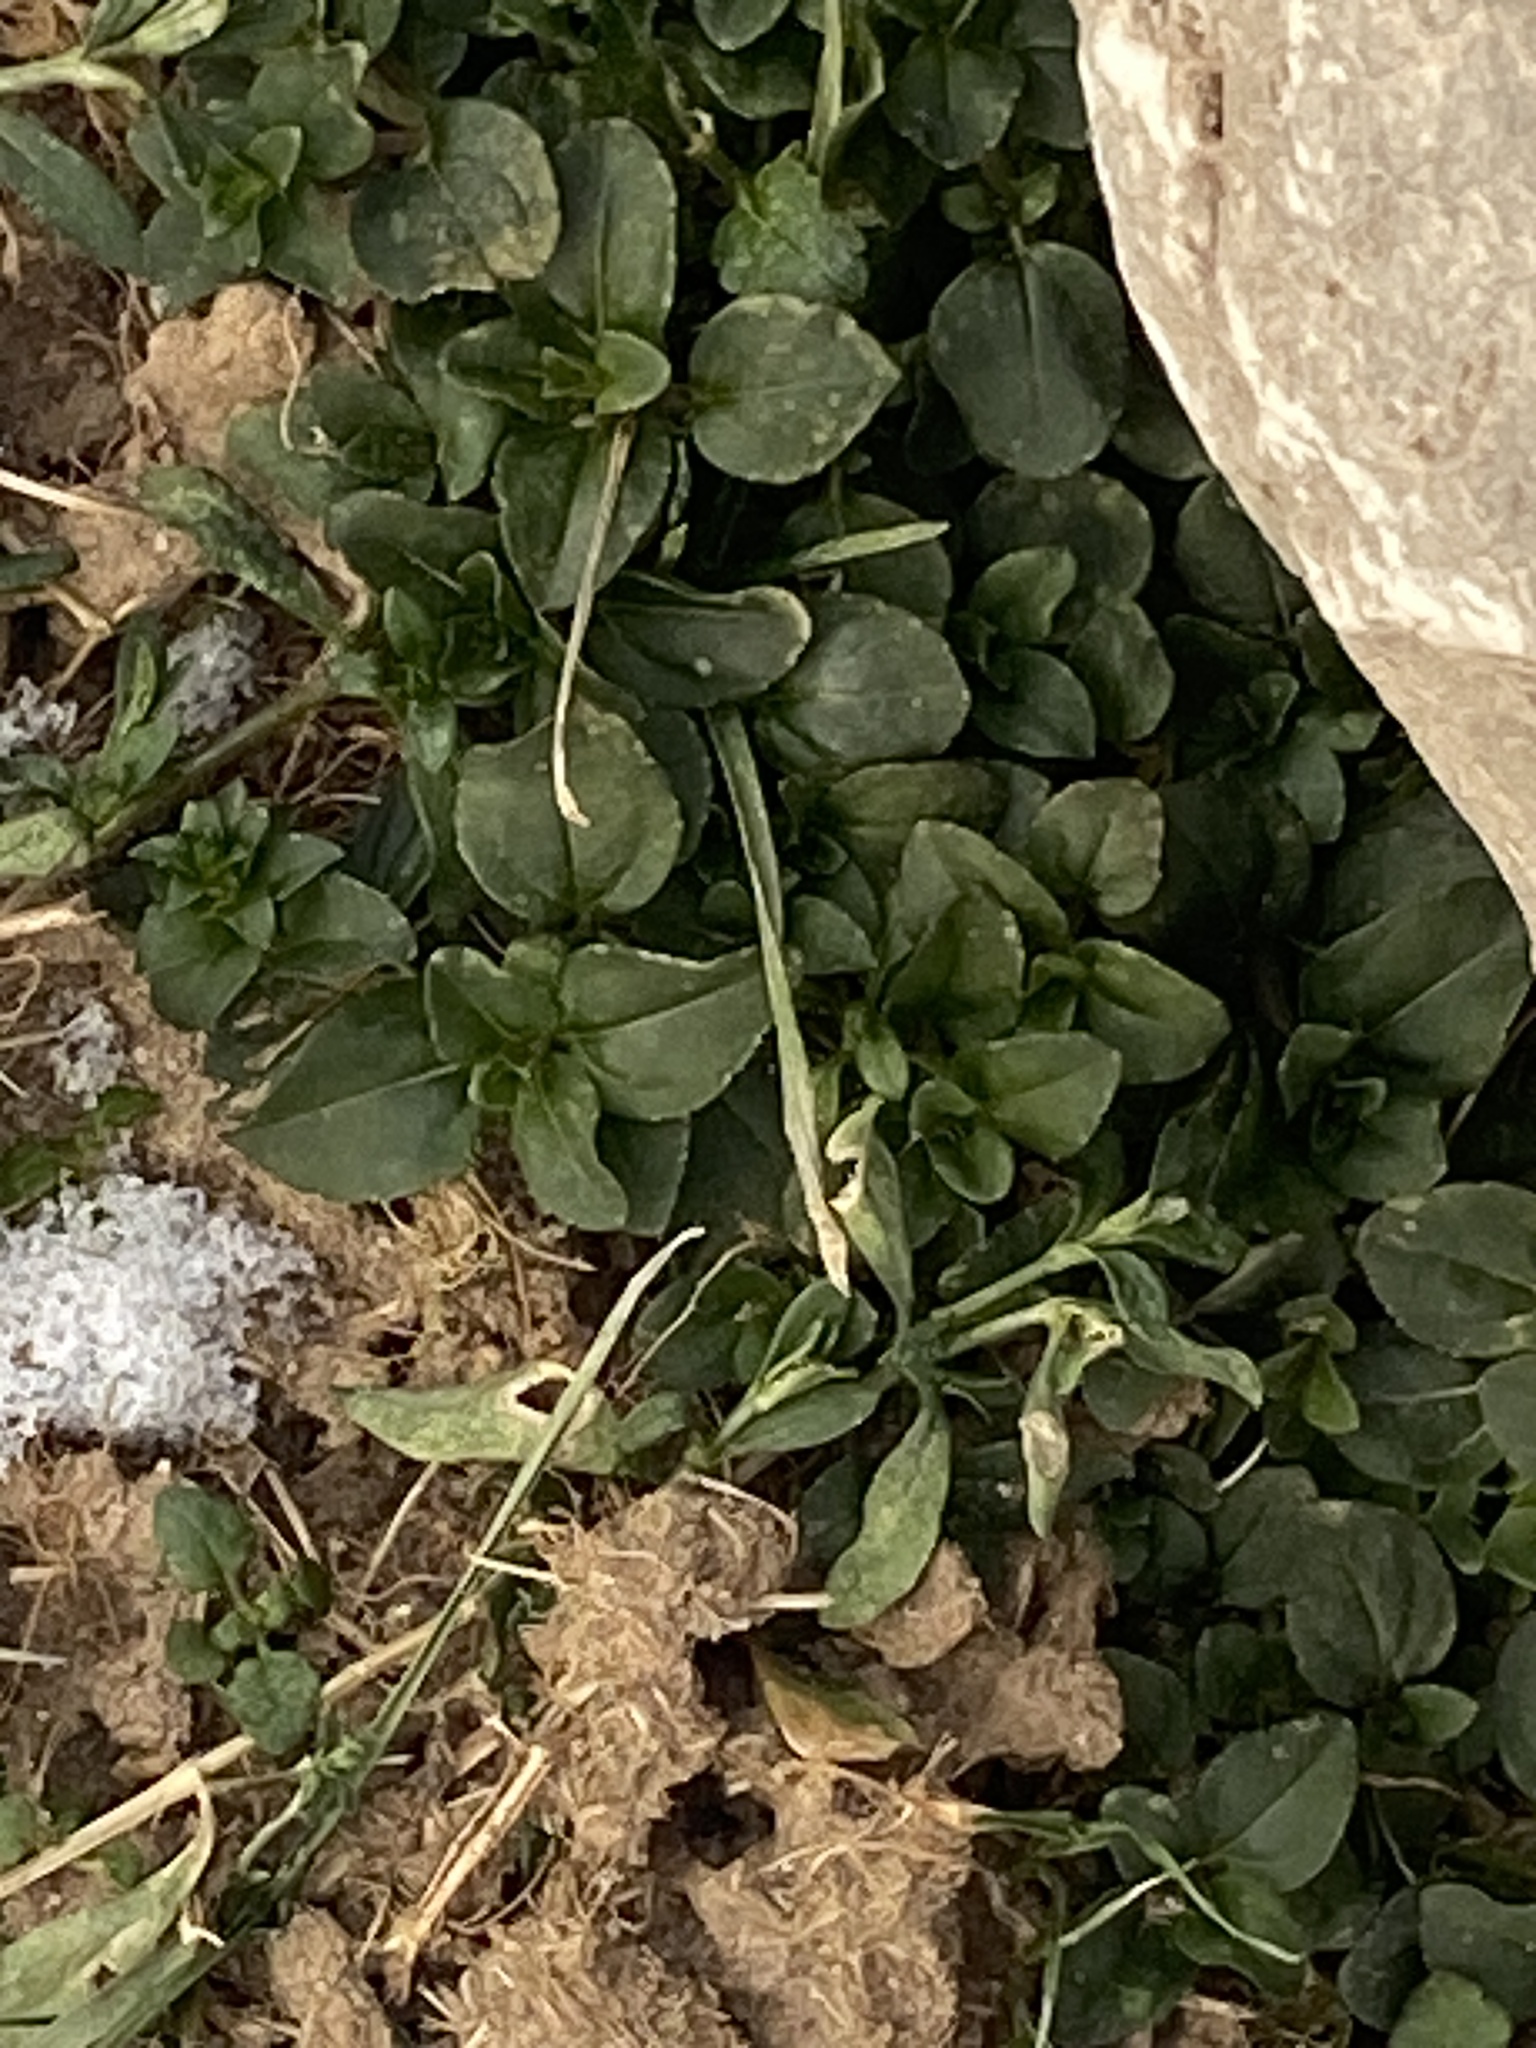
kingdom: Plantae
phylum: Tracheophyta
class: Magnoliopsida
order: Lamiales
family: Plantaginaceae
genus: Veronica
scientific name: Veronica serpyllifolia
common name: Thyme-leaved speedwell
